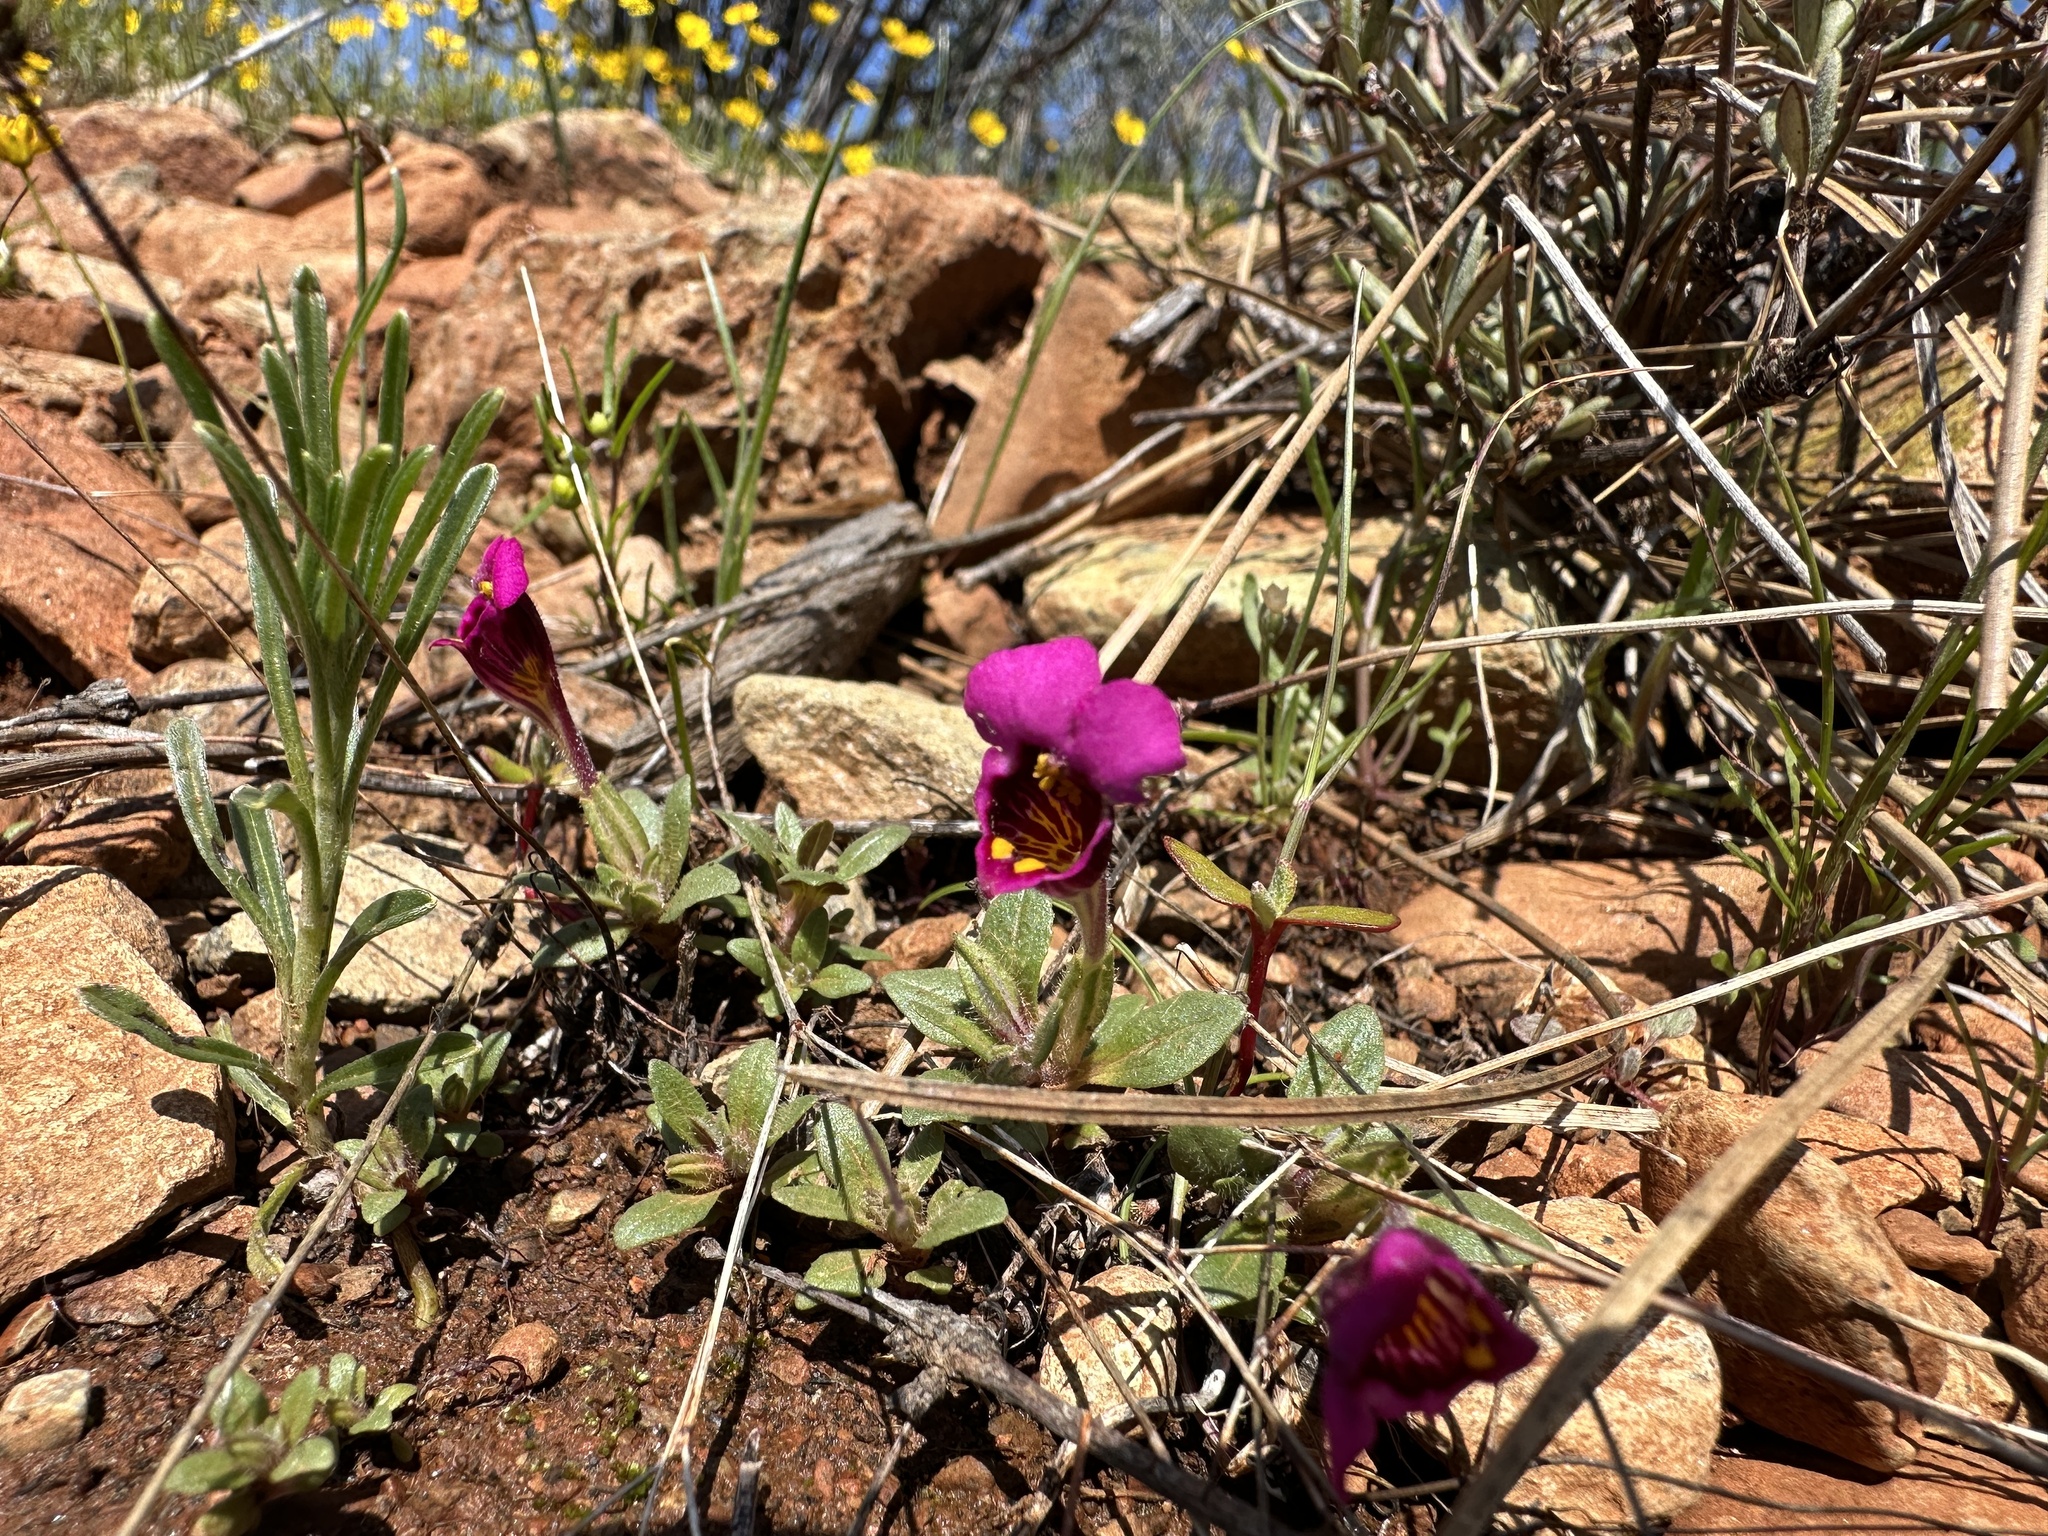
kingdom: Plantae
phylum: Tracheophyta
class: Magnoliopsida
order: Lamiales
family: Phrymaceae
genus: Diplacus
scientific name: Diplacus douglasii
